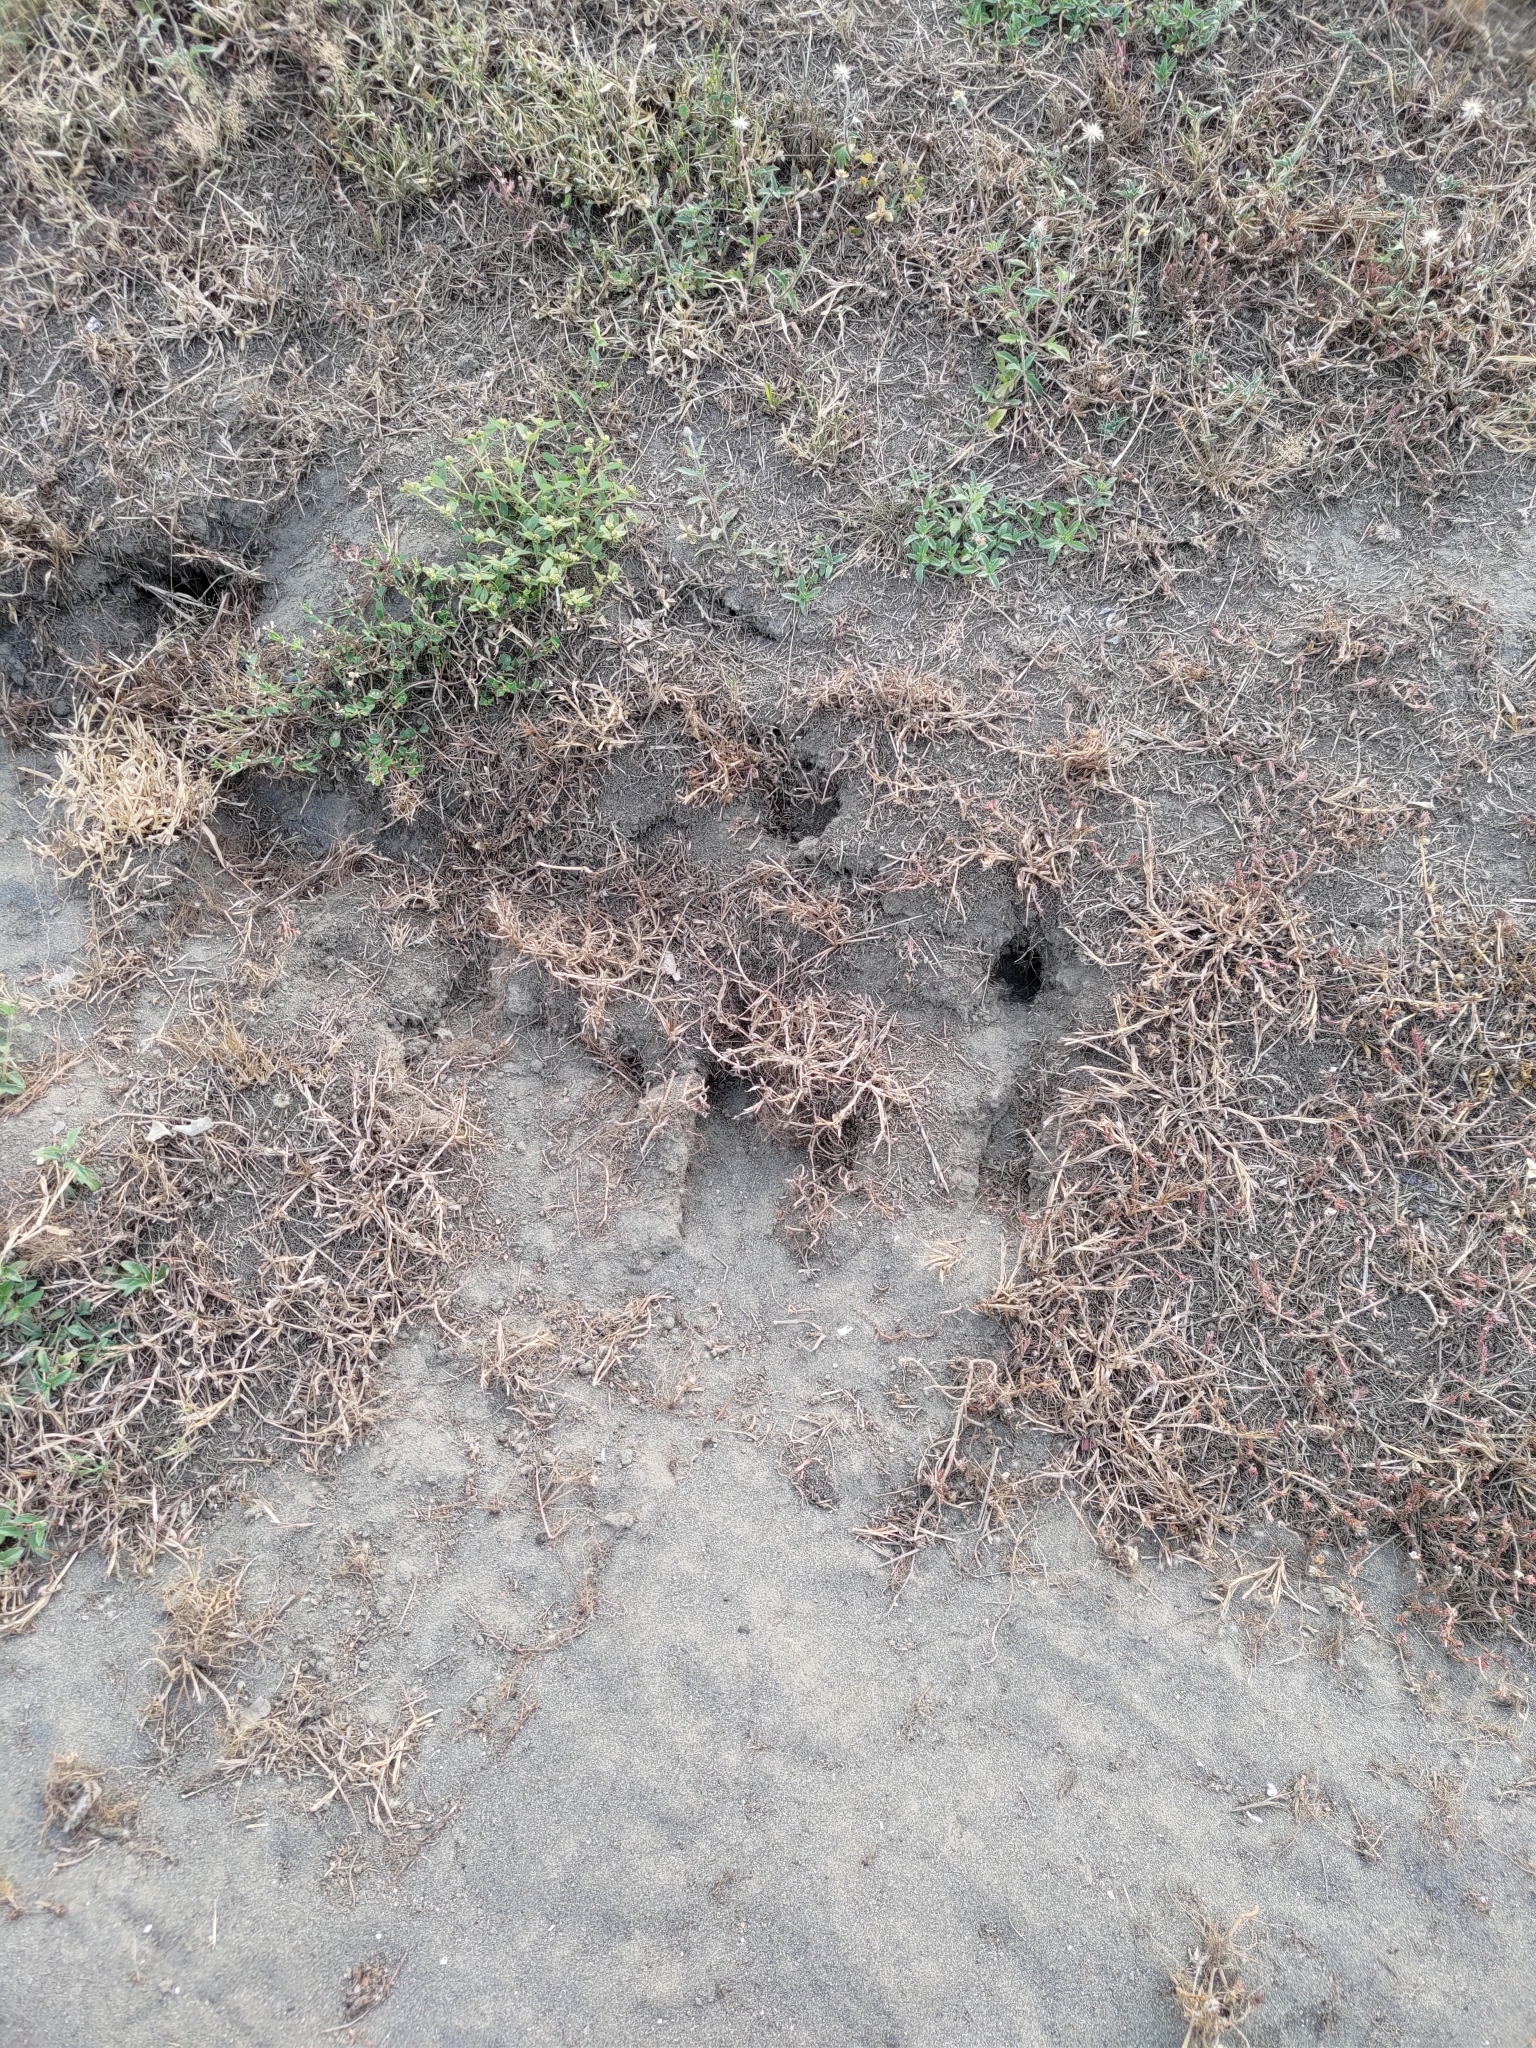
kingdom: Animalia
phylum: Chordata
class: Squamata
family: Iguanidae
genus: Iguana
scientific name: Iguana iguana
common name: Green iguana
